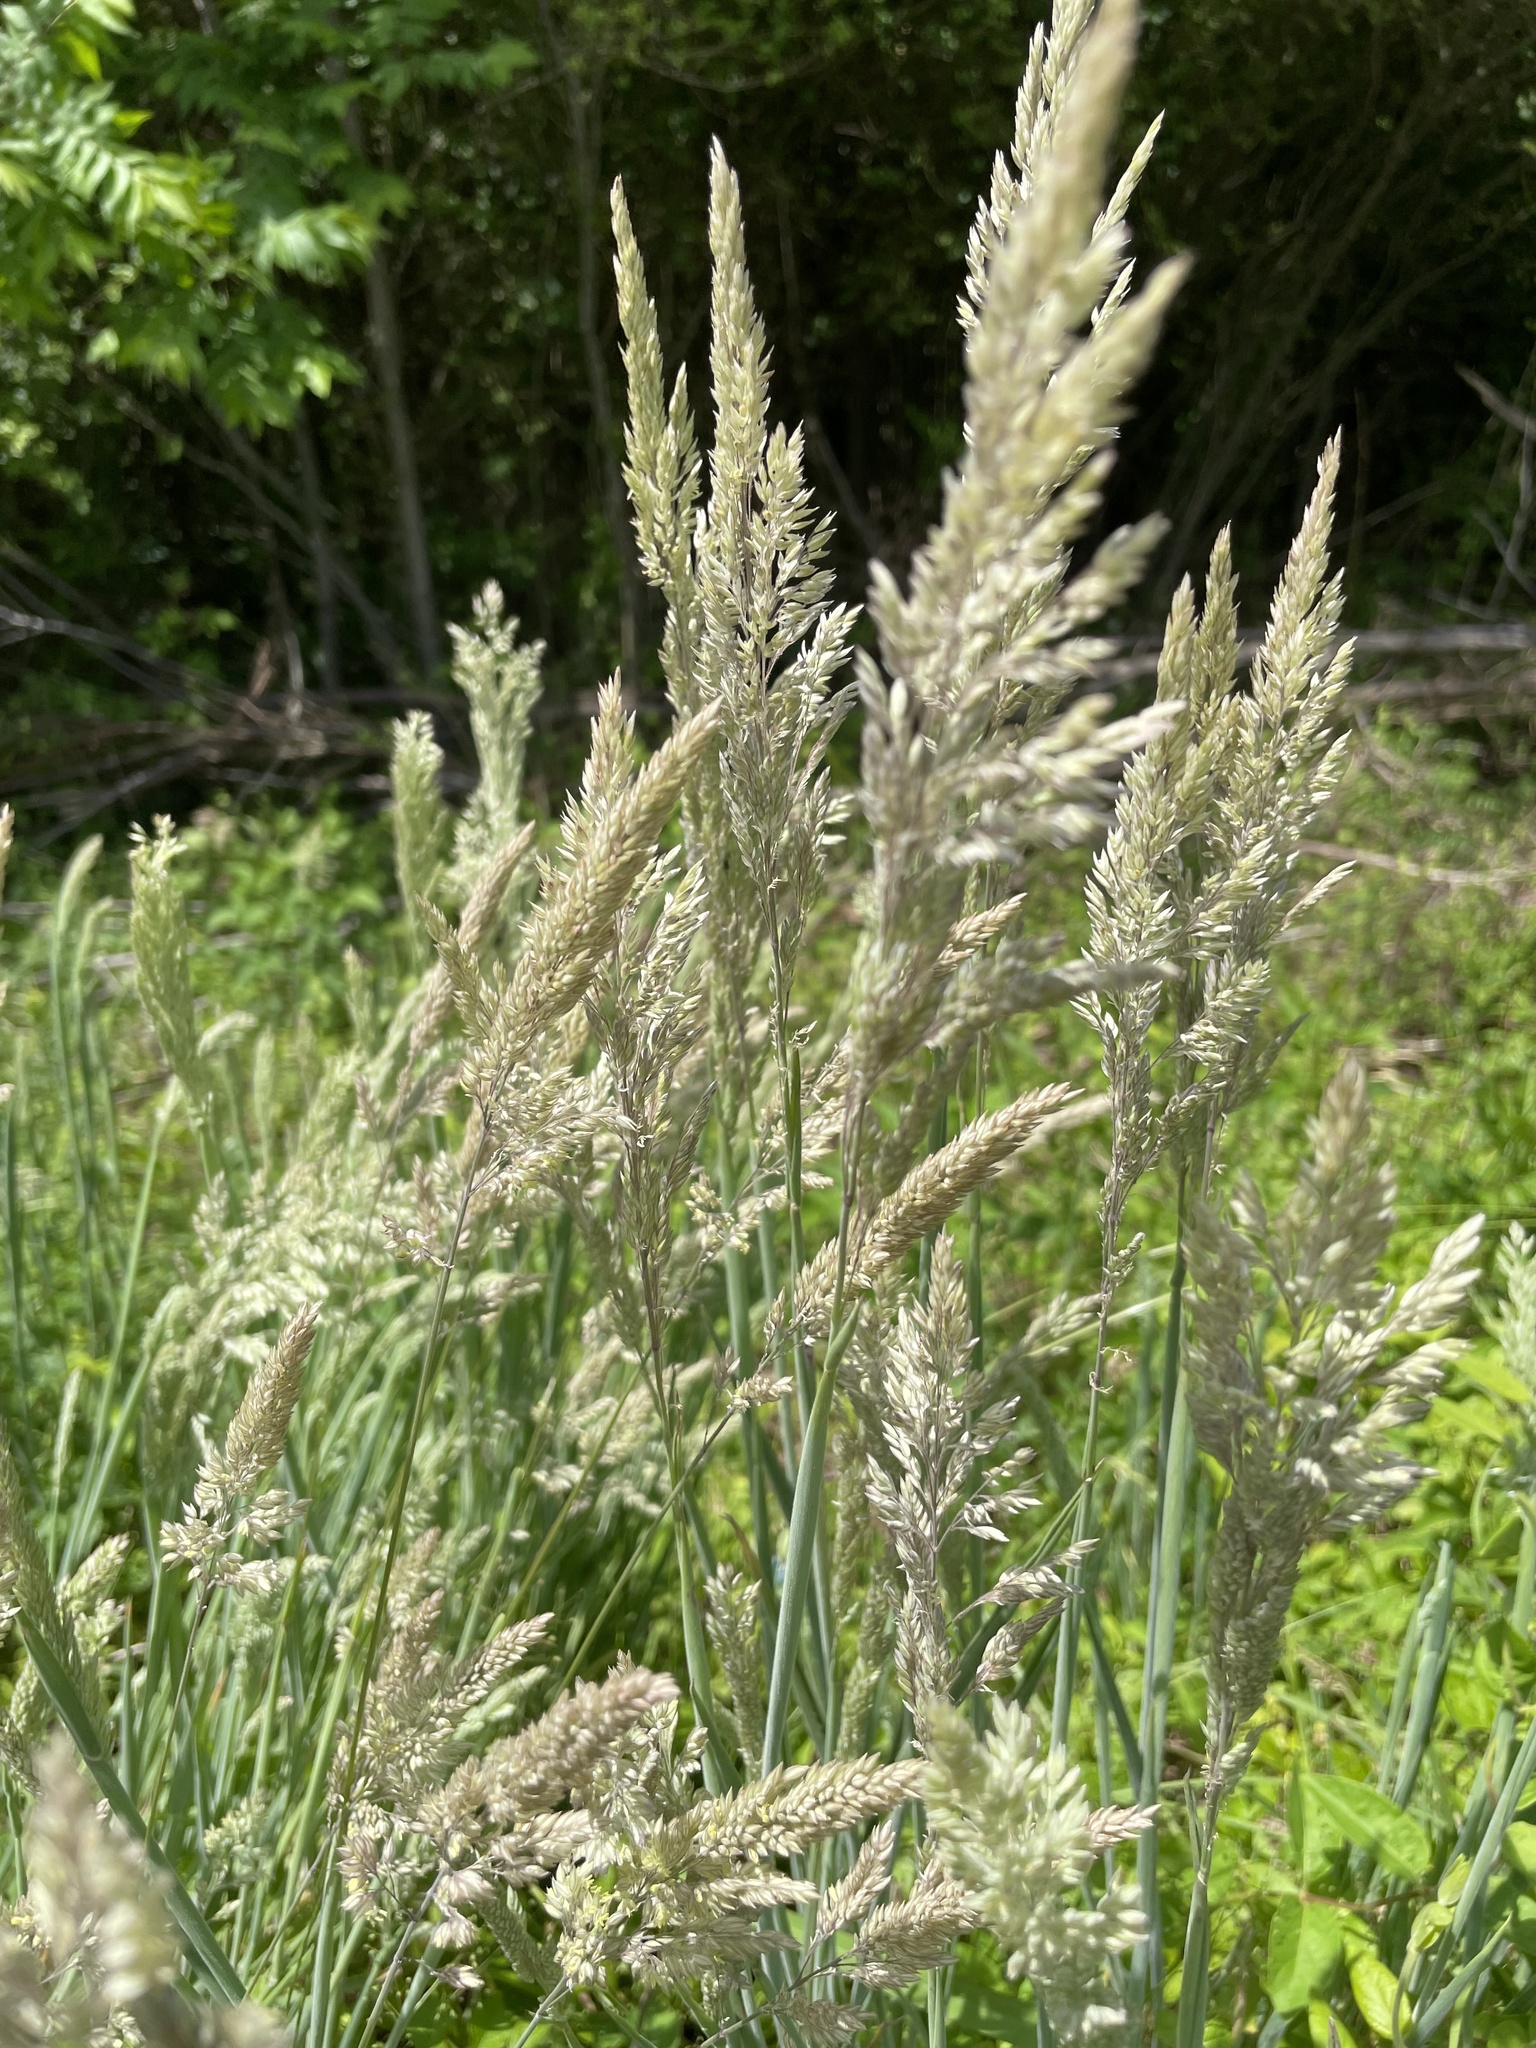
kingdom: Plantae
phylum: Tracheophyta
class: Liliopsida
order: Poales
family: Poaceae
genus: Holcus
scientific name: Holcus lanatus
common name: Yorkshire-fog
